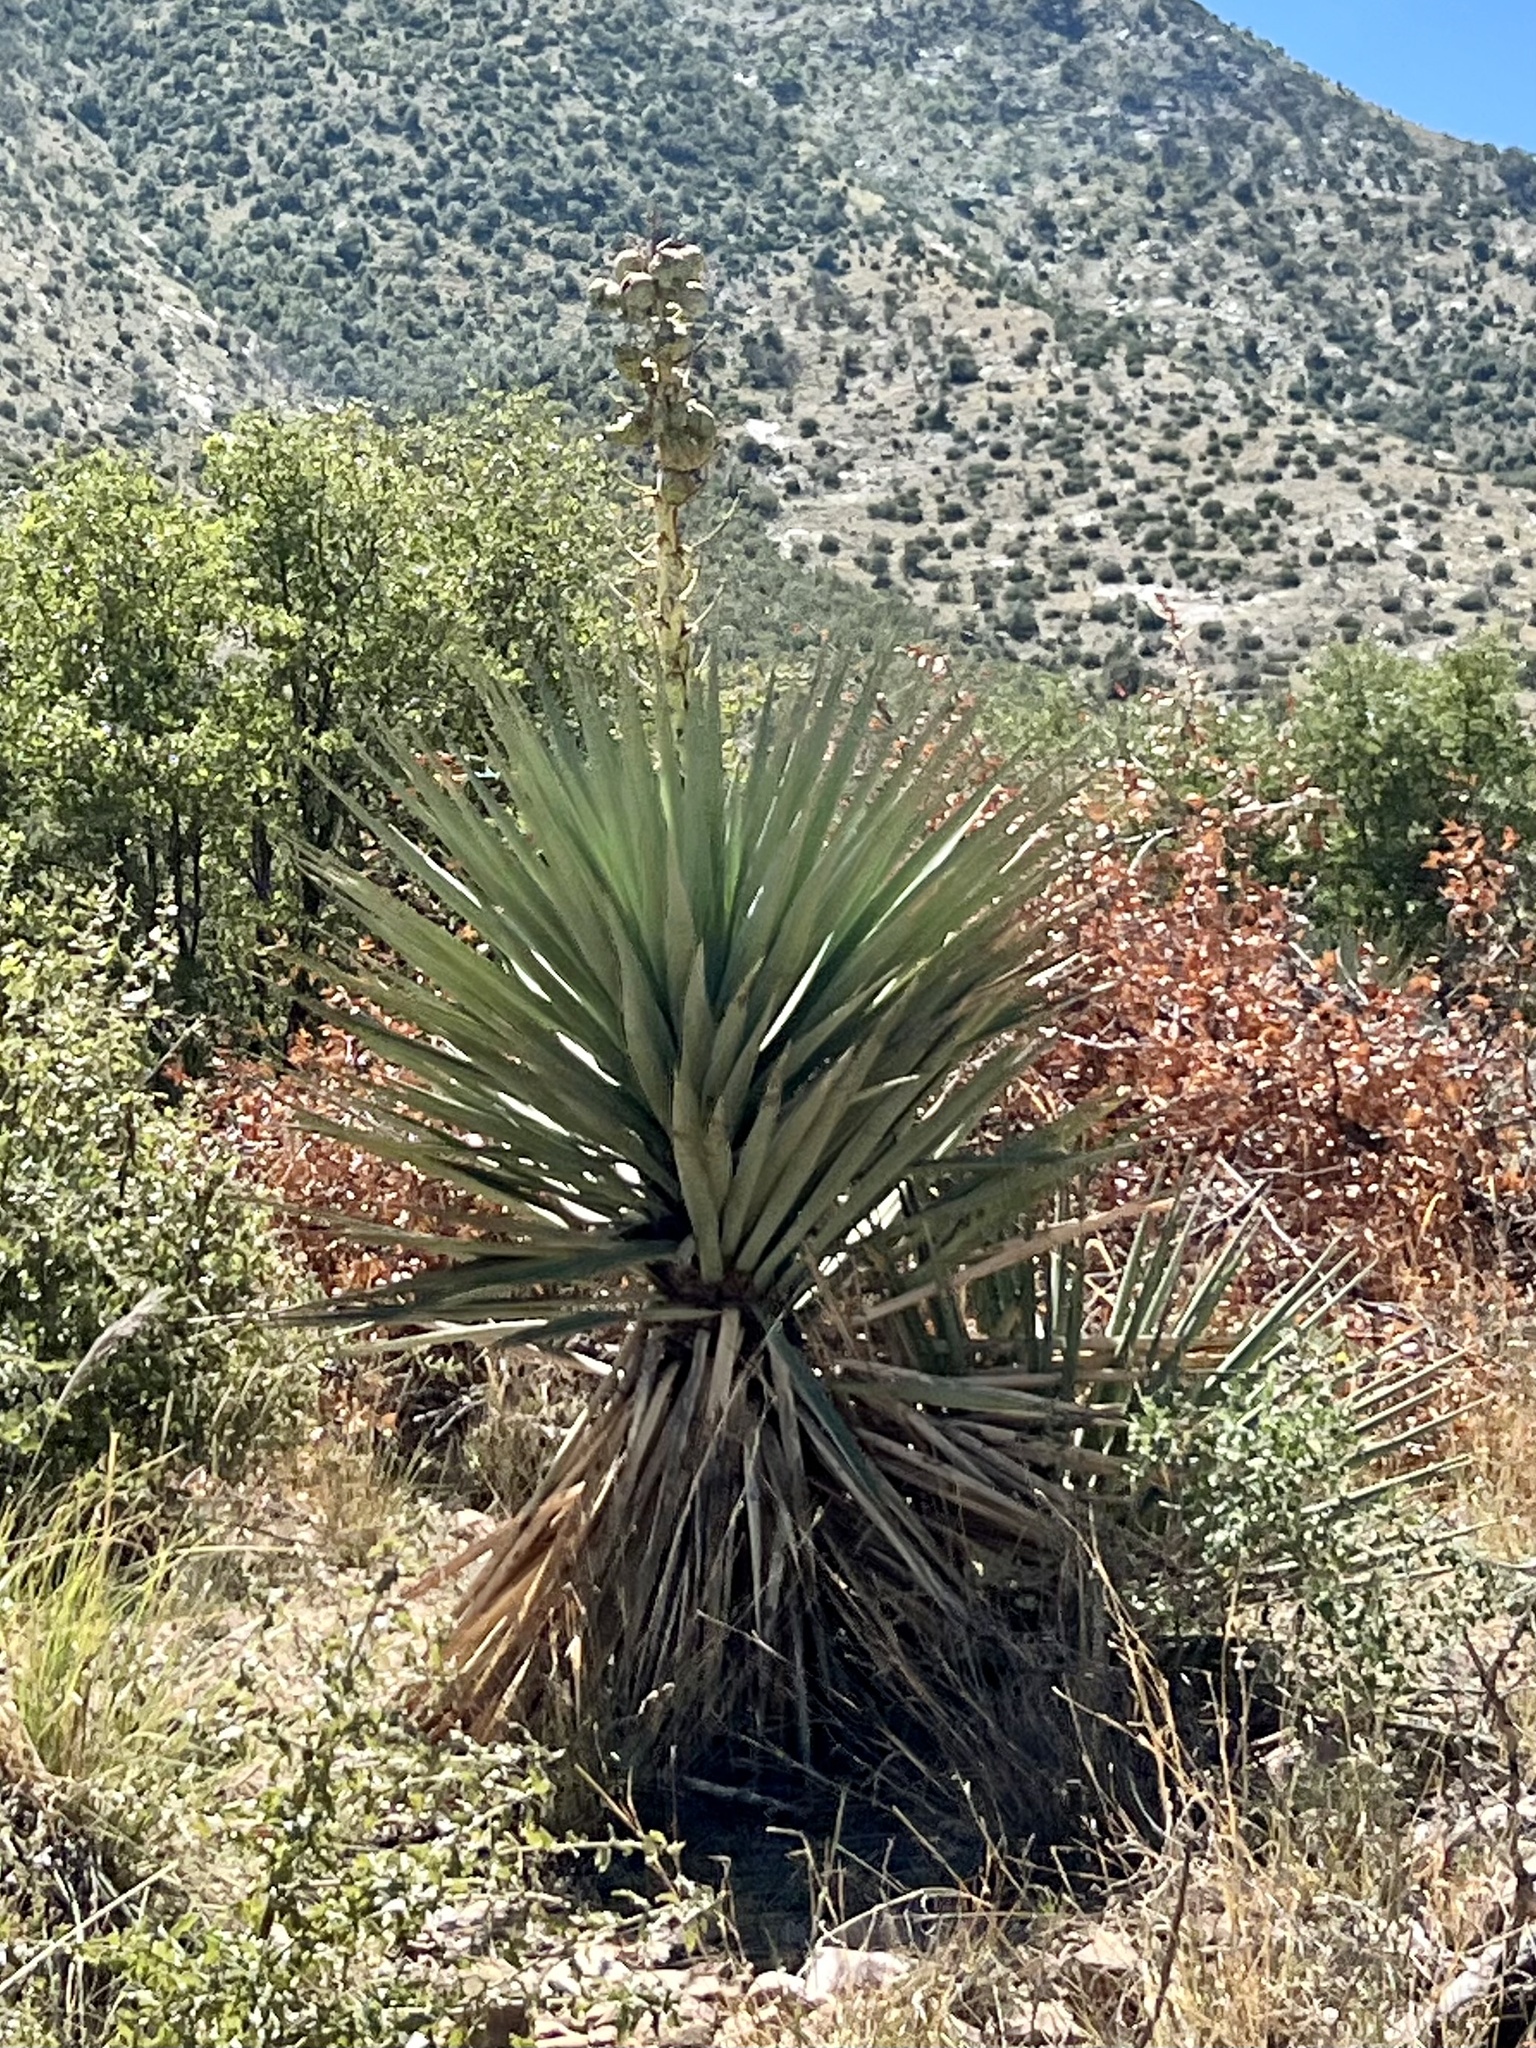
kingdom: Plantae
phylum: Tracheophyta
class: Liliopsida
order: Asparagales
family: Asparagaceae
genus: Yucca
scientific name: Yucca schottii
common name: Hoary yucca
